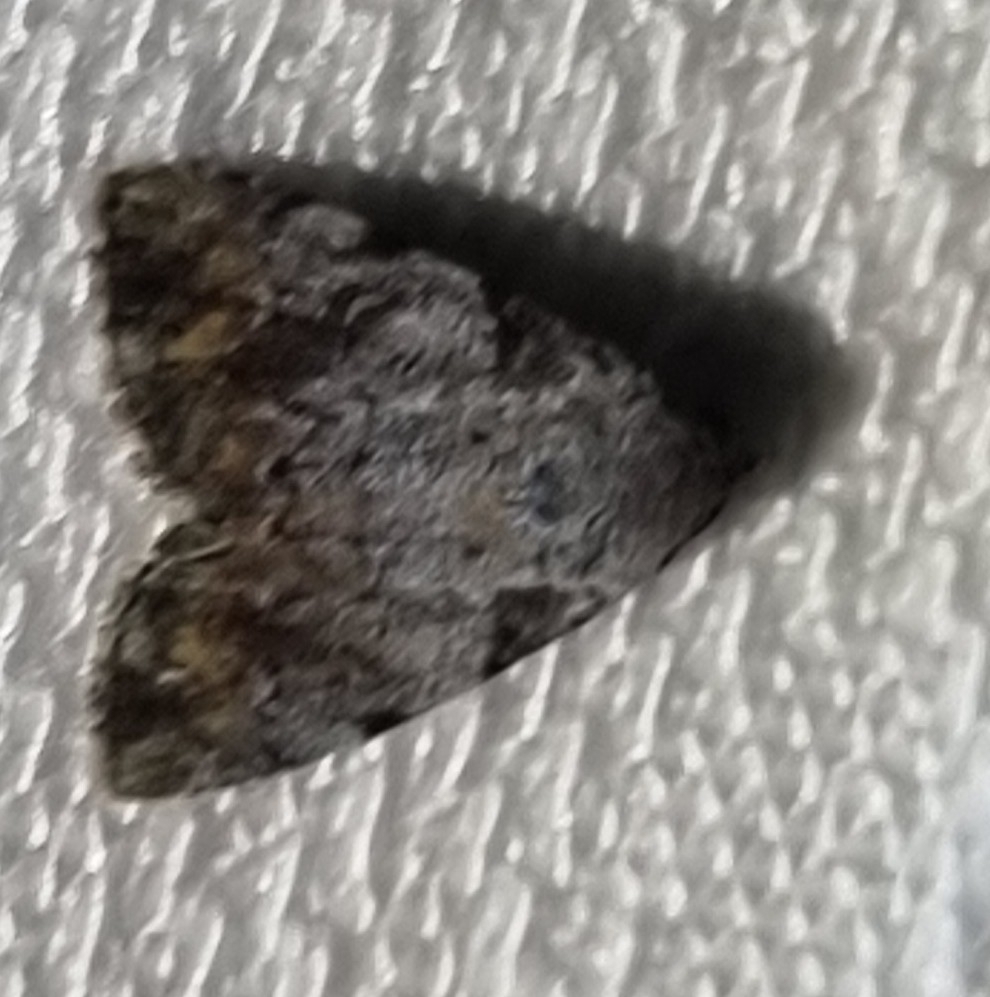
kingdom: Animalia
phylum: Arthropoda
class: Insecta
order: Lepidoptera
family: Noctuidae
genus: Metachrostis
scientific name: Metachrostis paurograpta
